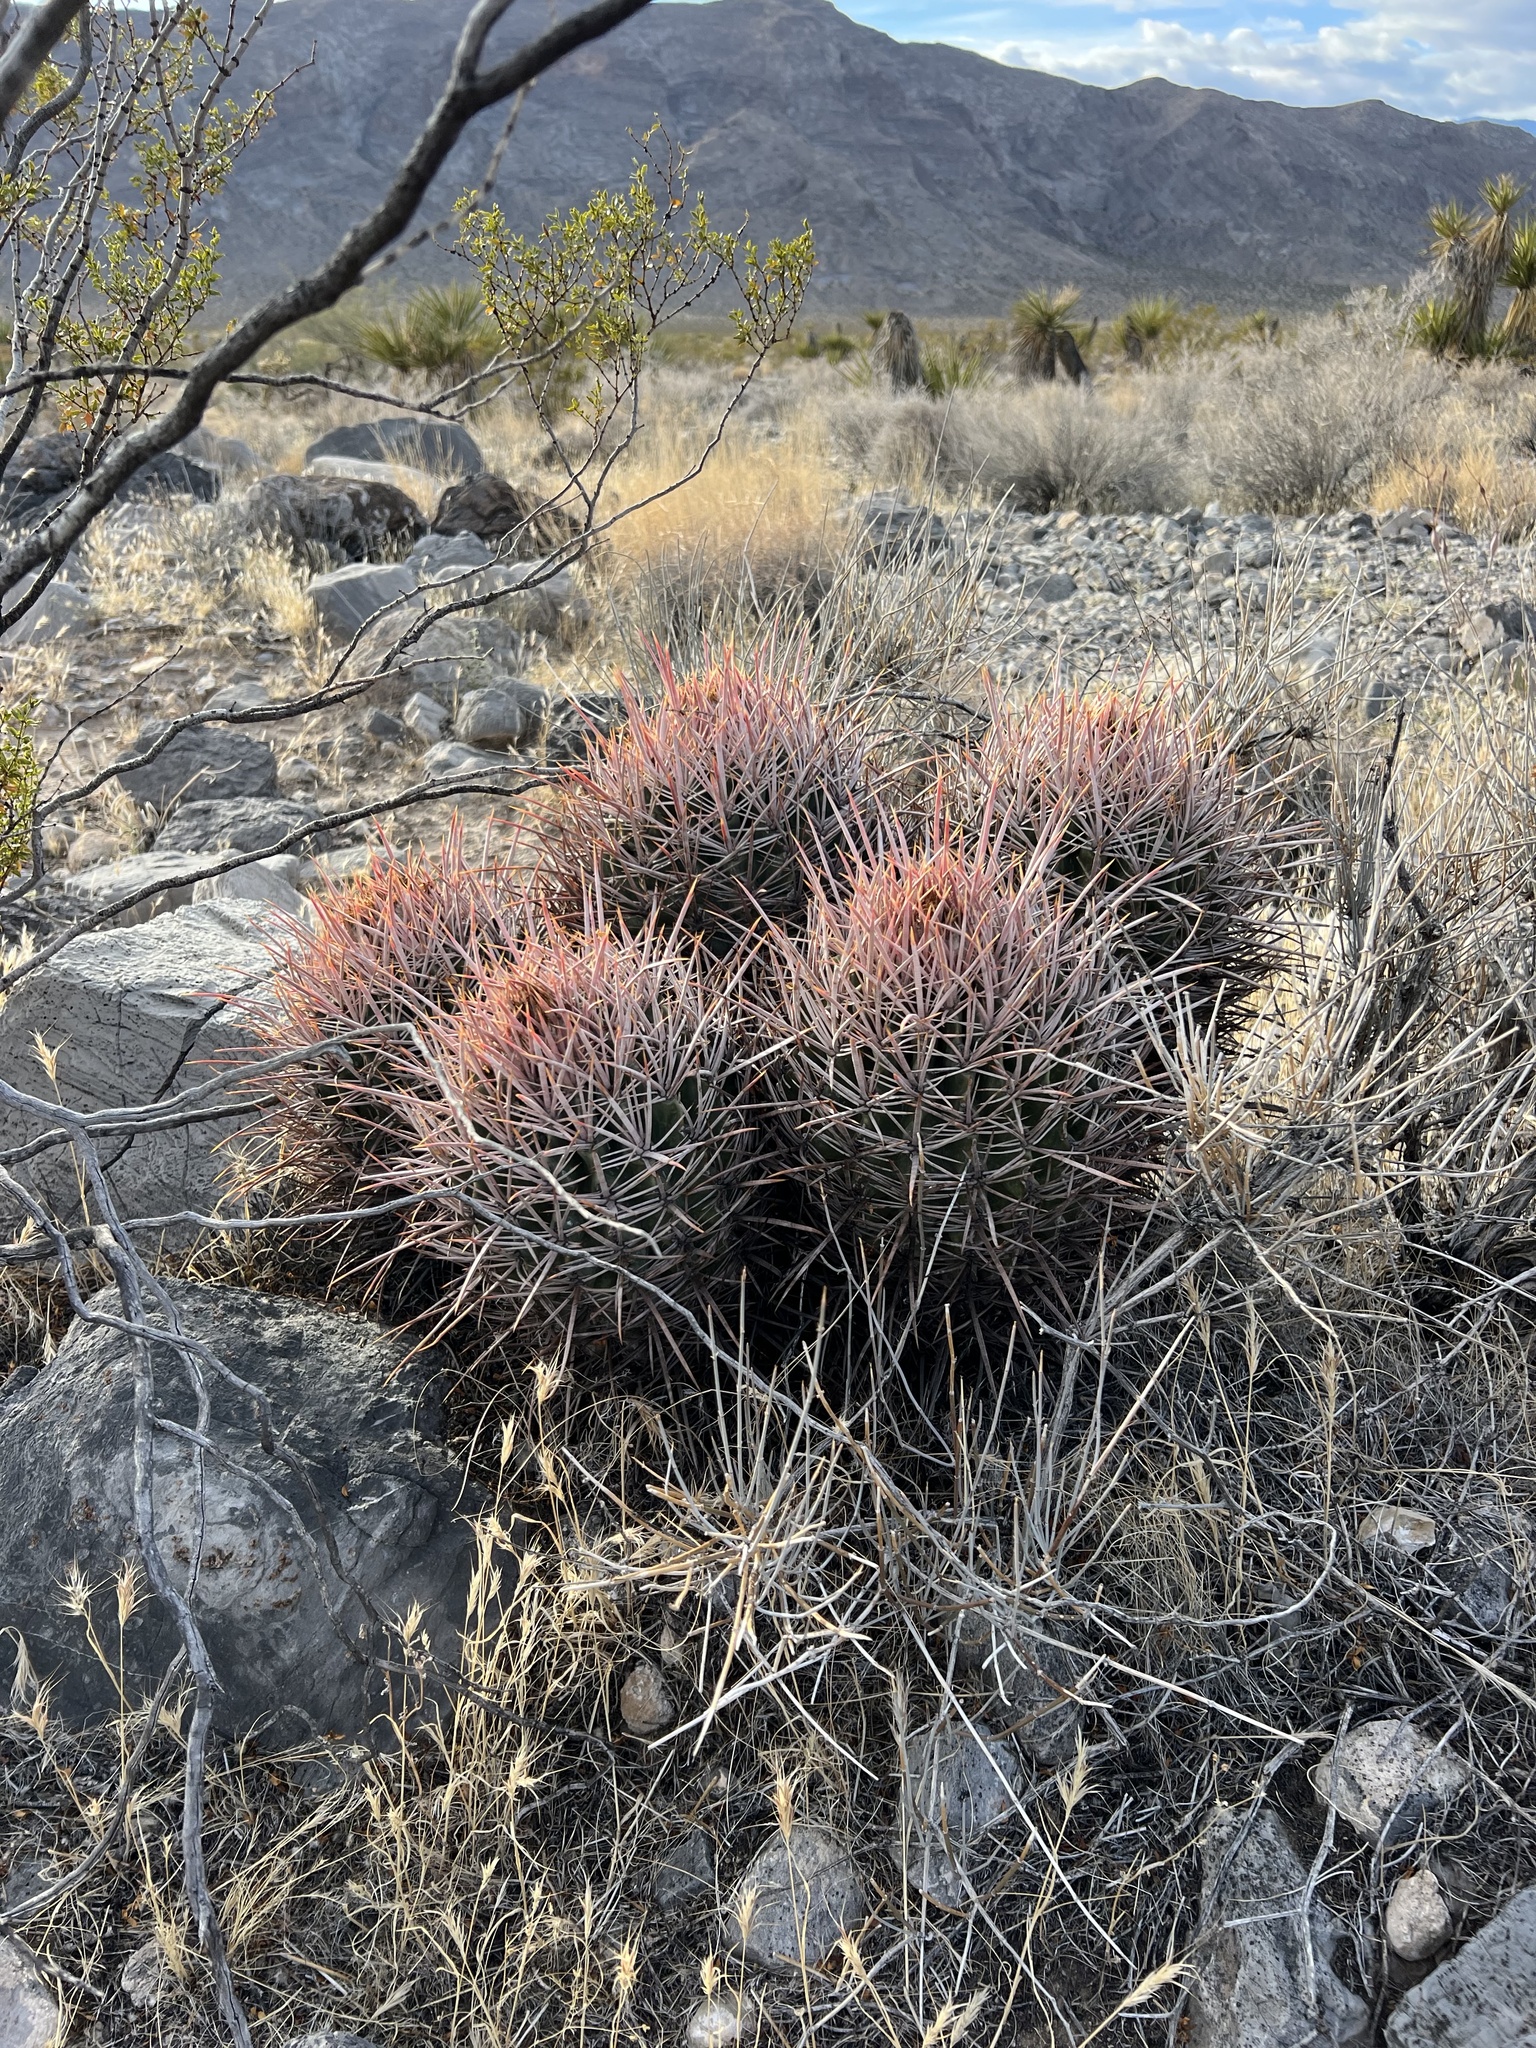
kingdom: Plantae
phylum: Tracheophyta
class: Magnoliopsida
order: Caryophyllales
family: Cactaceae
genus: Echinocactus
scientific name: Echinocactus polycephalus
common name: Cottontop cactus
